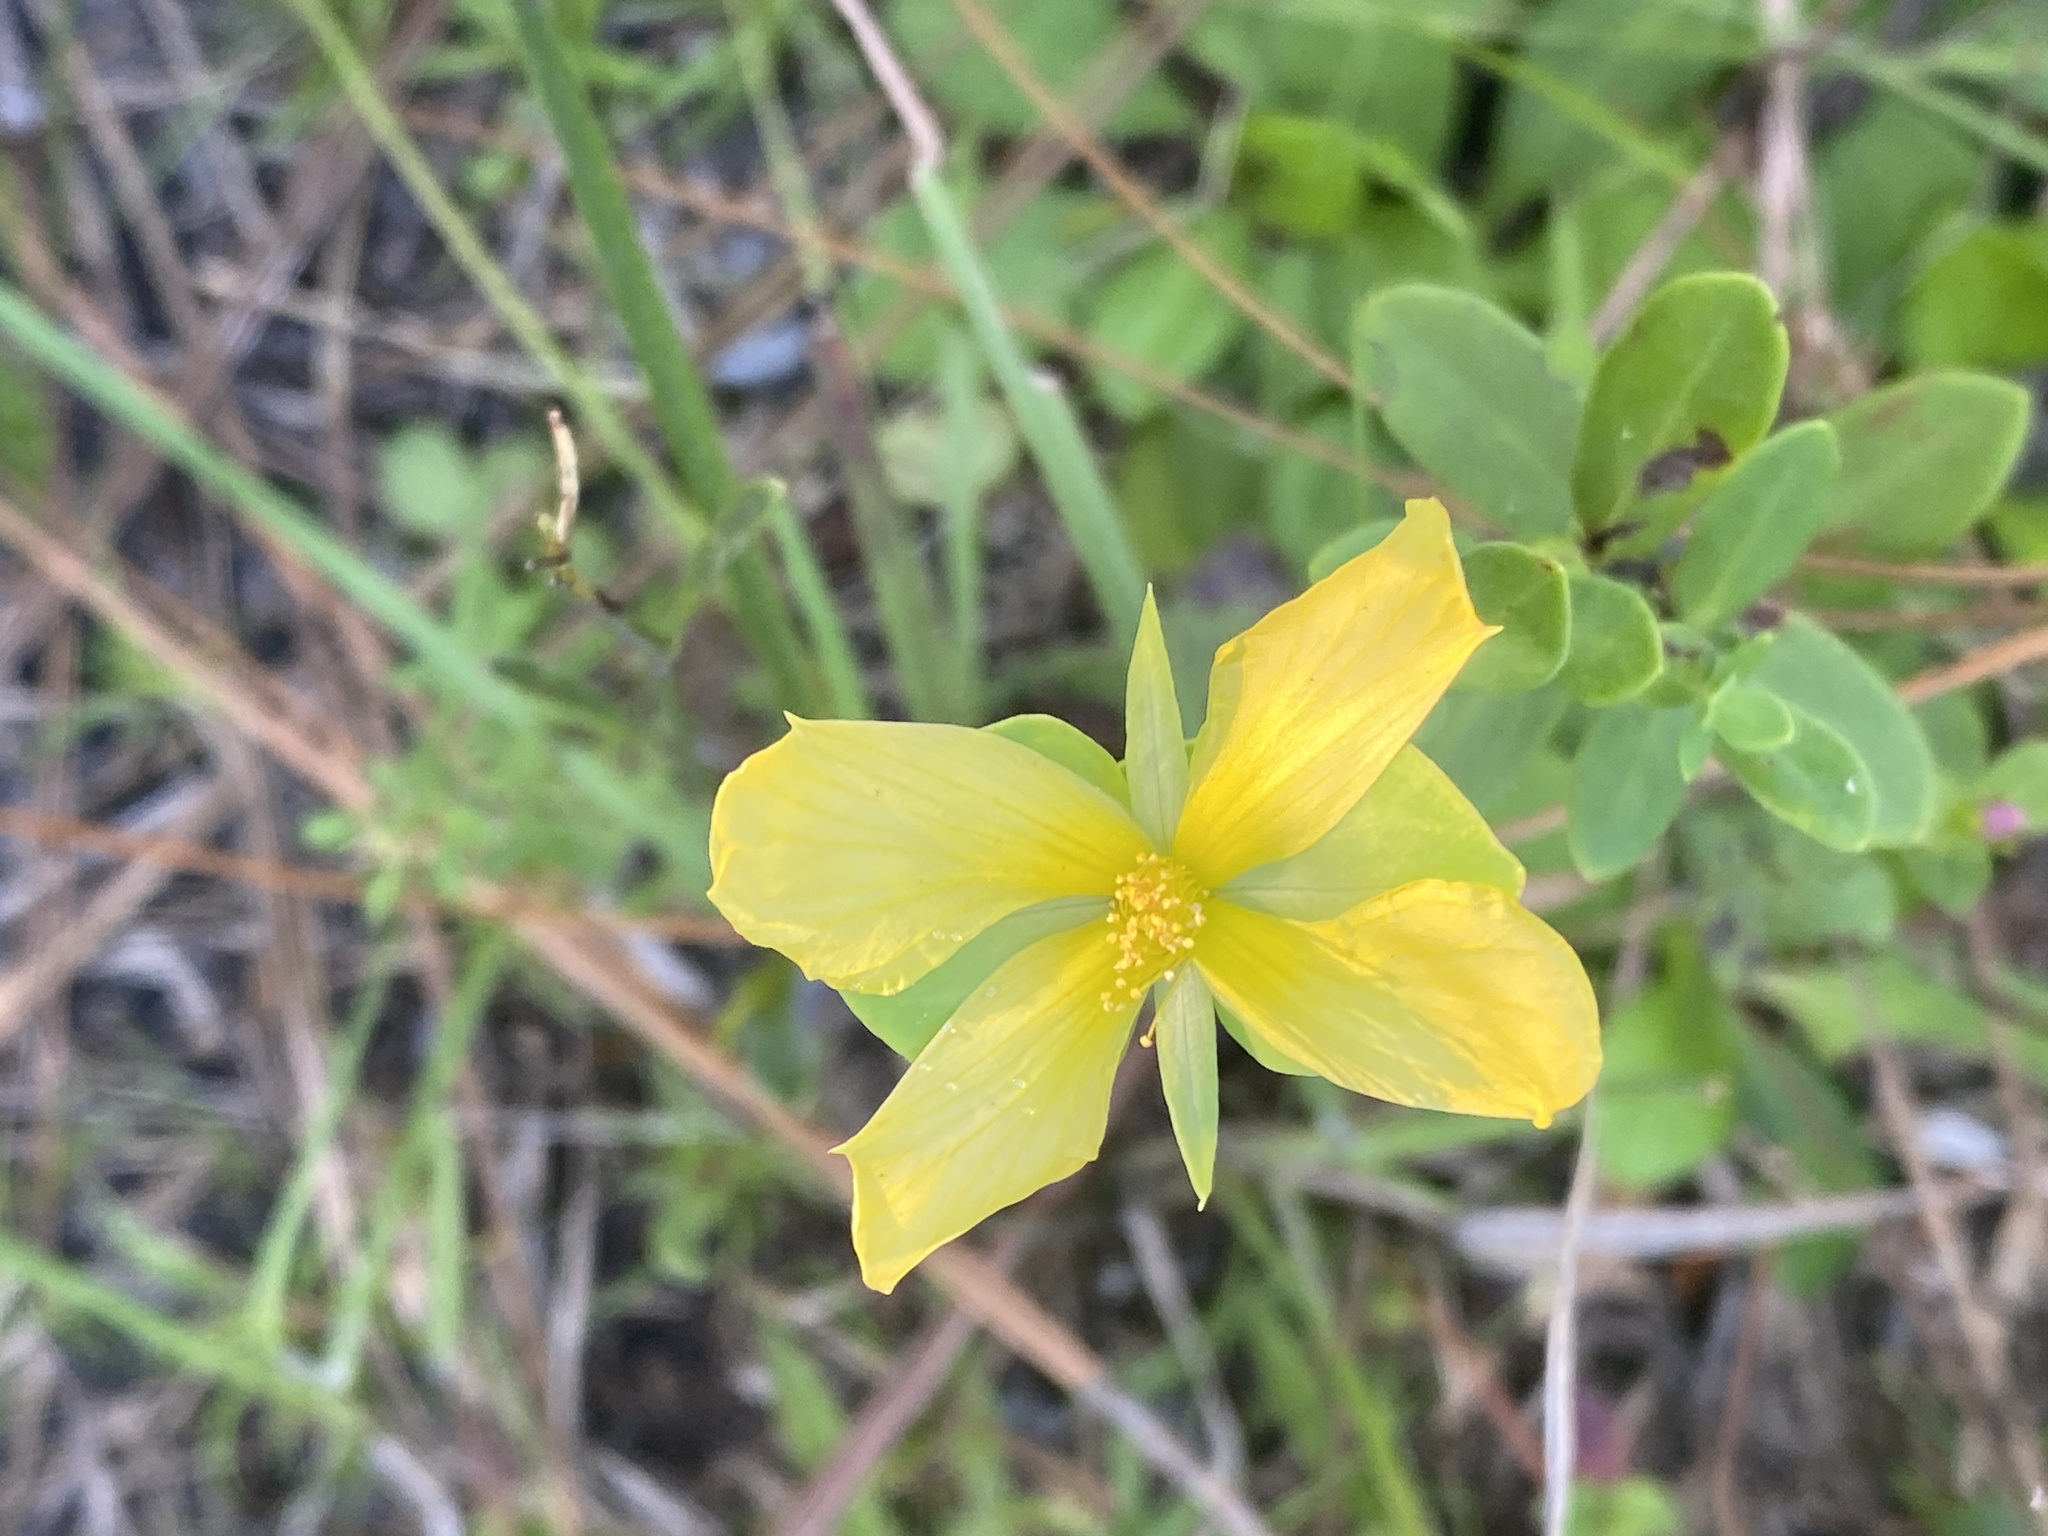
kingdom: Plantae
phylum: Tracheophyta
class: Magnoliopsida
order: Malpighiales
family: Hypericaceae
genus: Hypericum
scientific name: Hypericum crux-andreae
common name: St.-peter's-wort
